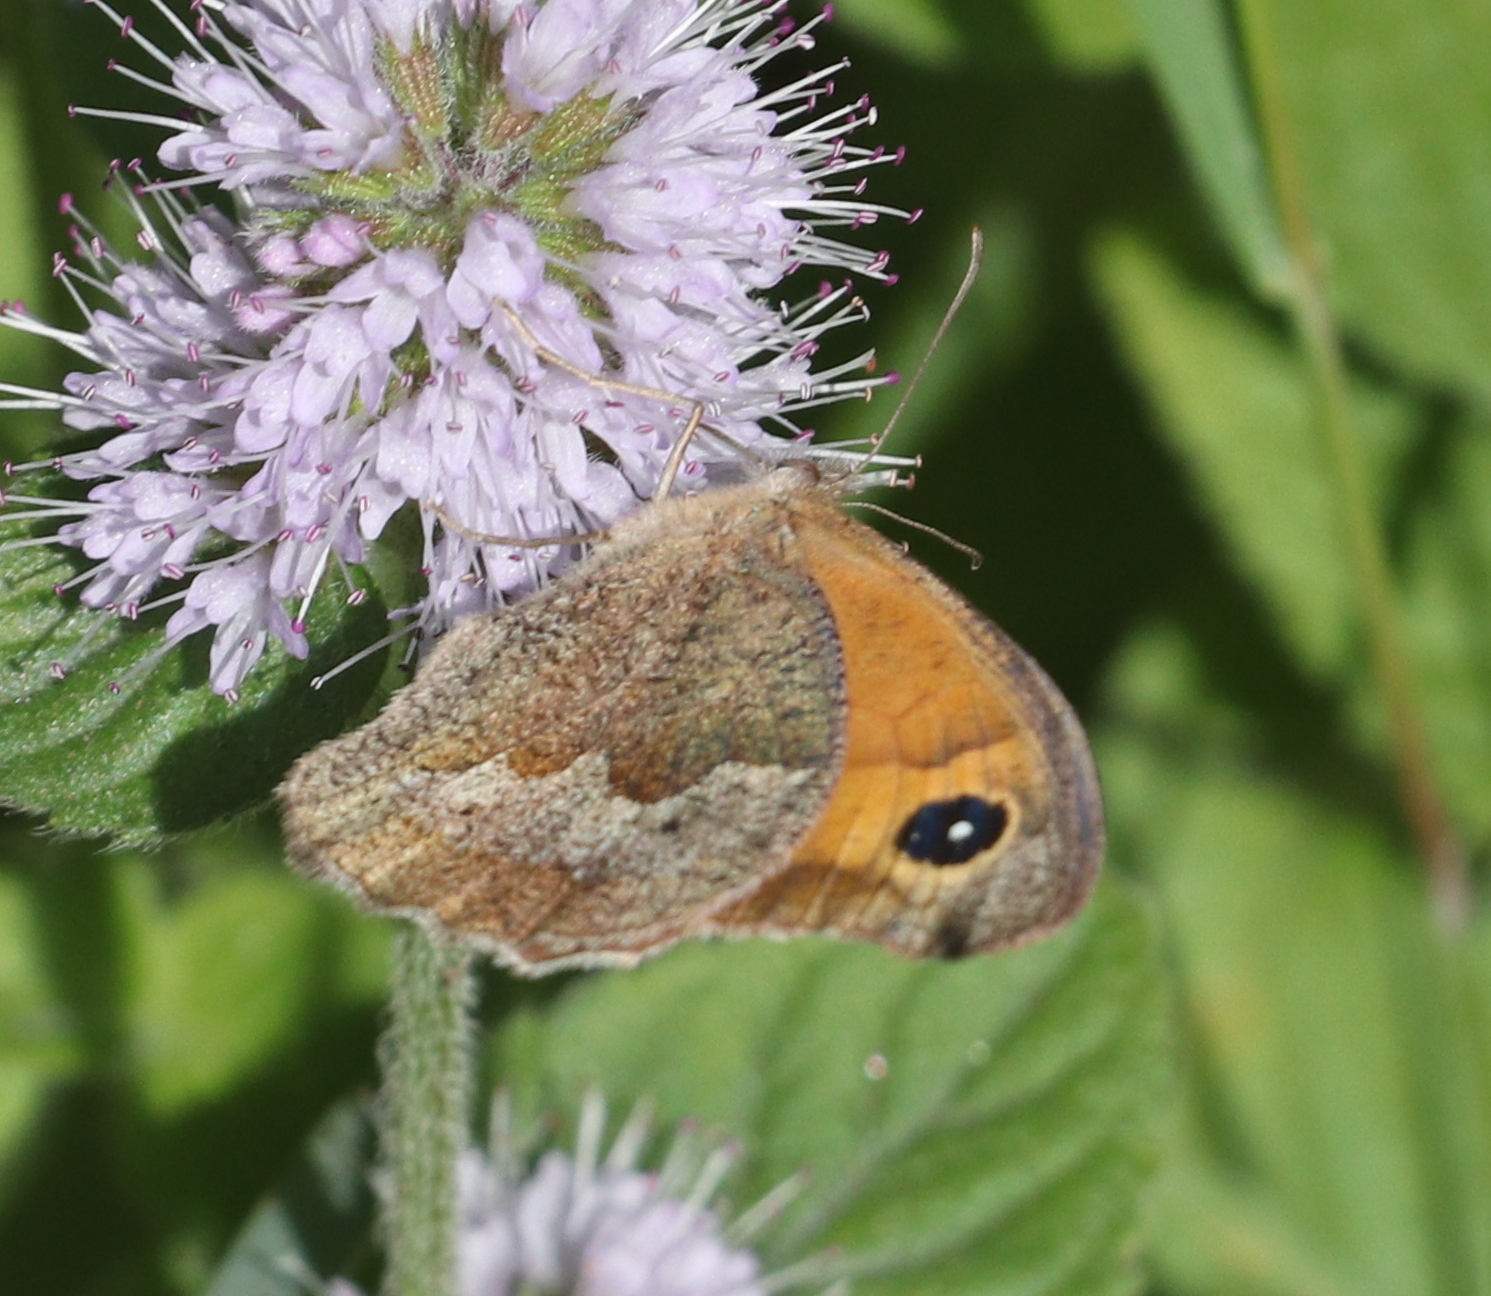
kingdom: Animalia
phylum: Arthropoda
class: Insecta
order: Lepidoptera
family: Nymphalidae
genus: Maniola
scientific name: Maniola jurtina
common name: Meadow brown
